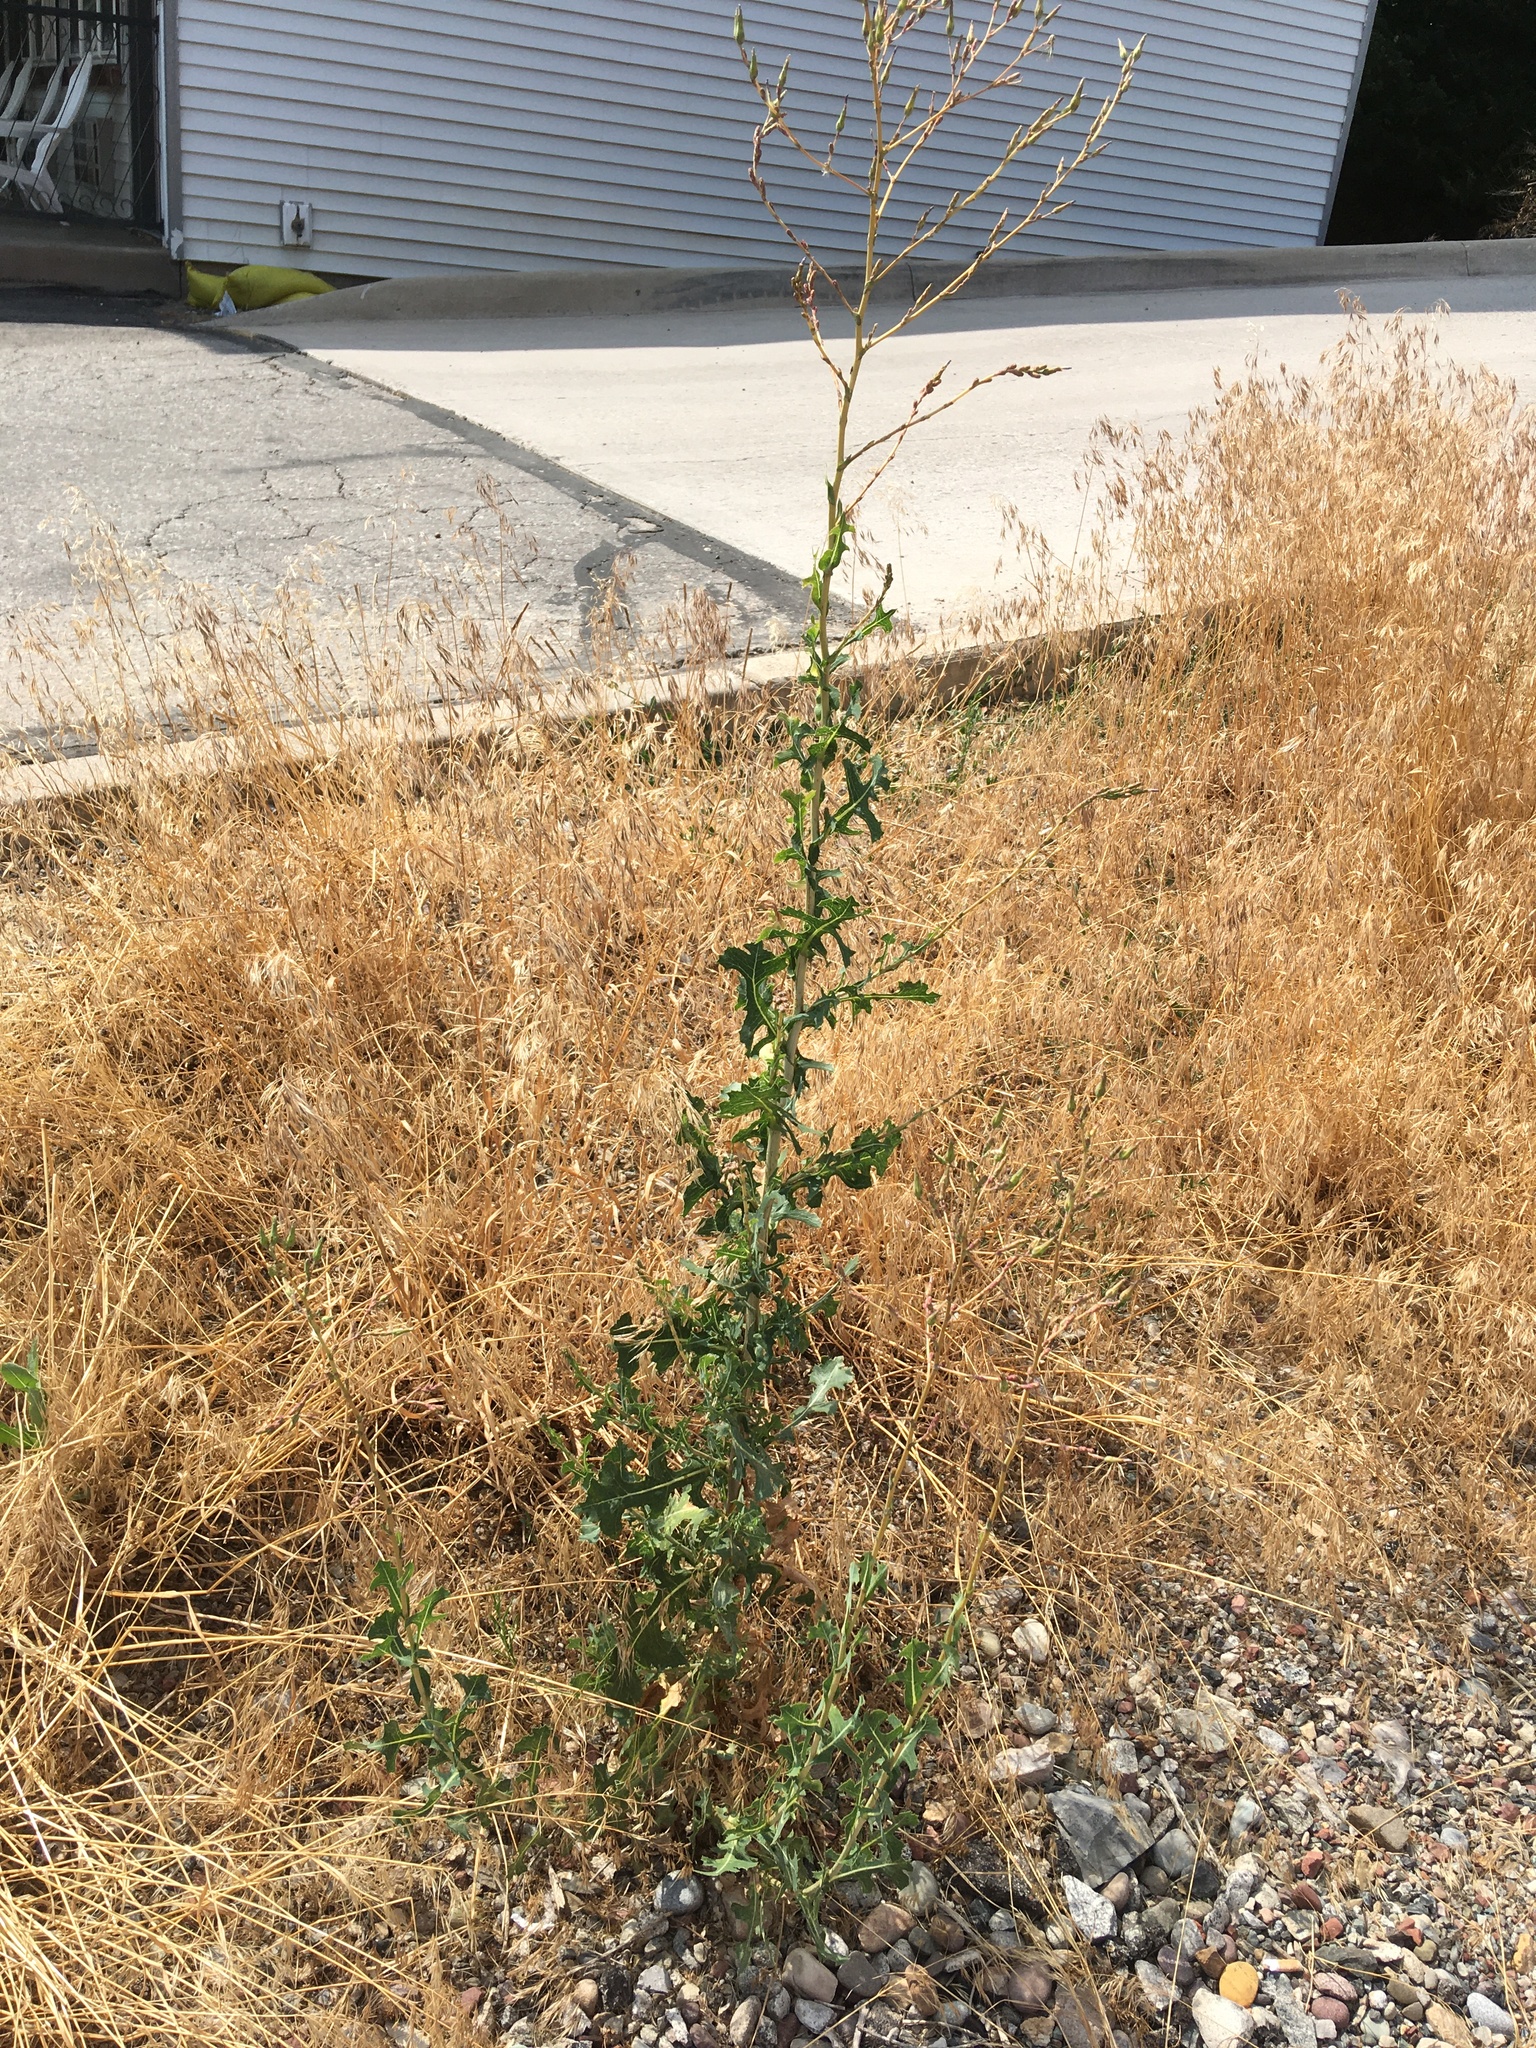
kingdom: Plantae
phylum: Tracheophyta
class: Magnoliopsida
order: Asterales
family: Asteraceae
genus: Lactuca
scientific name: Lactuca serriola
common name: Prickly lettuce
